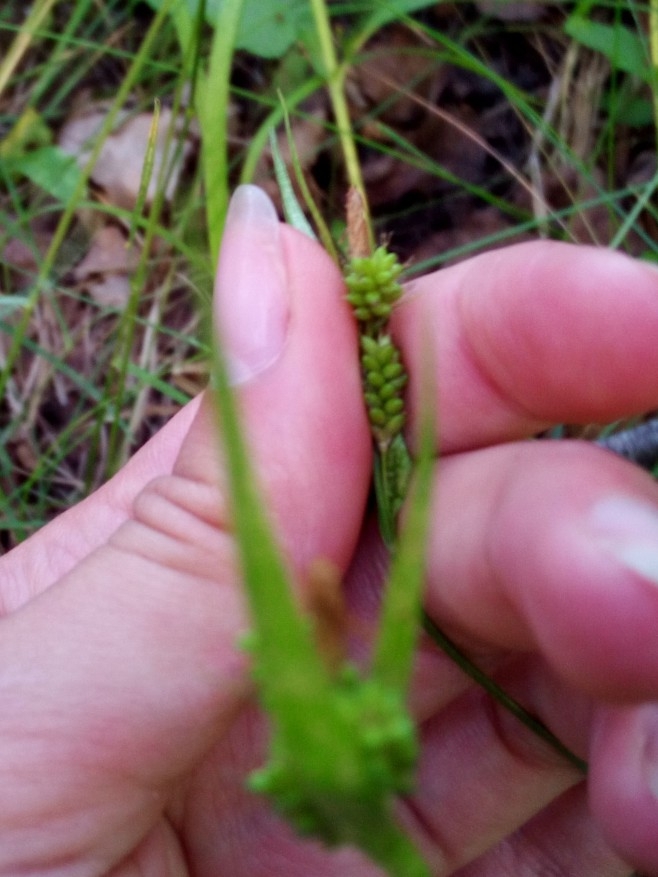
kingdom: Plantae
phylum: Tracheophyta
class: Liliopsida
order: Poales
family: Cyperaceae
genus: Carex
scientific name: Carex pallescens
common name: Pale sedge
